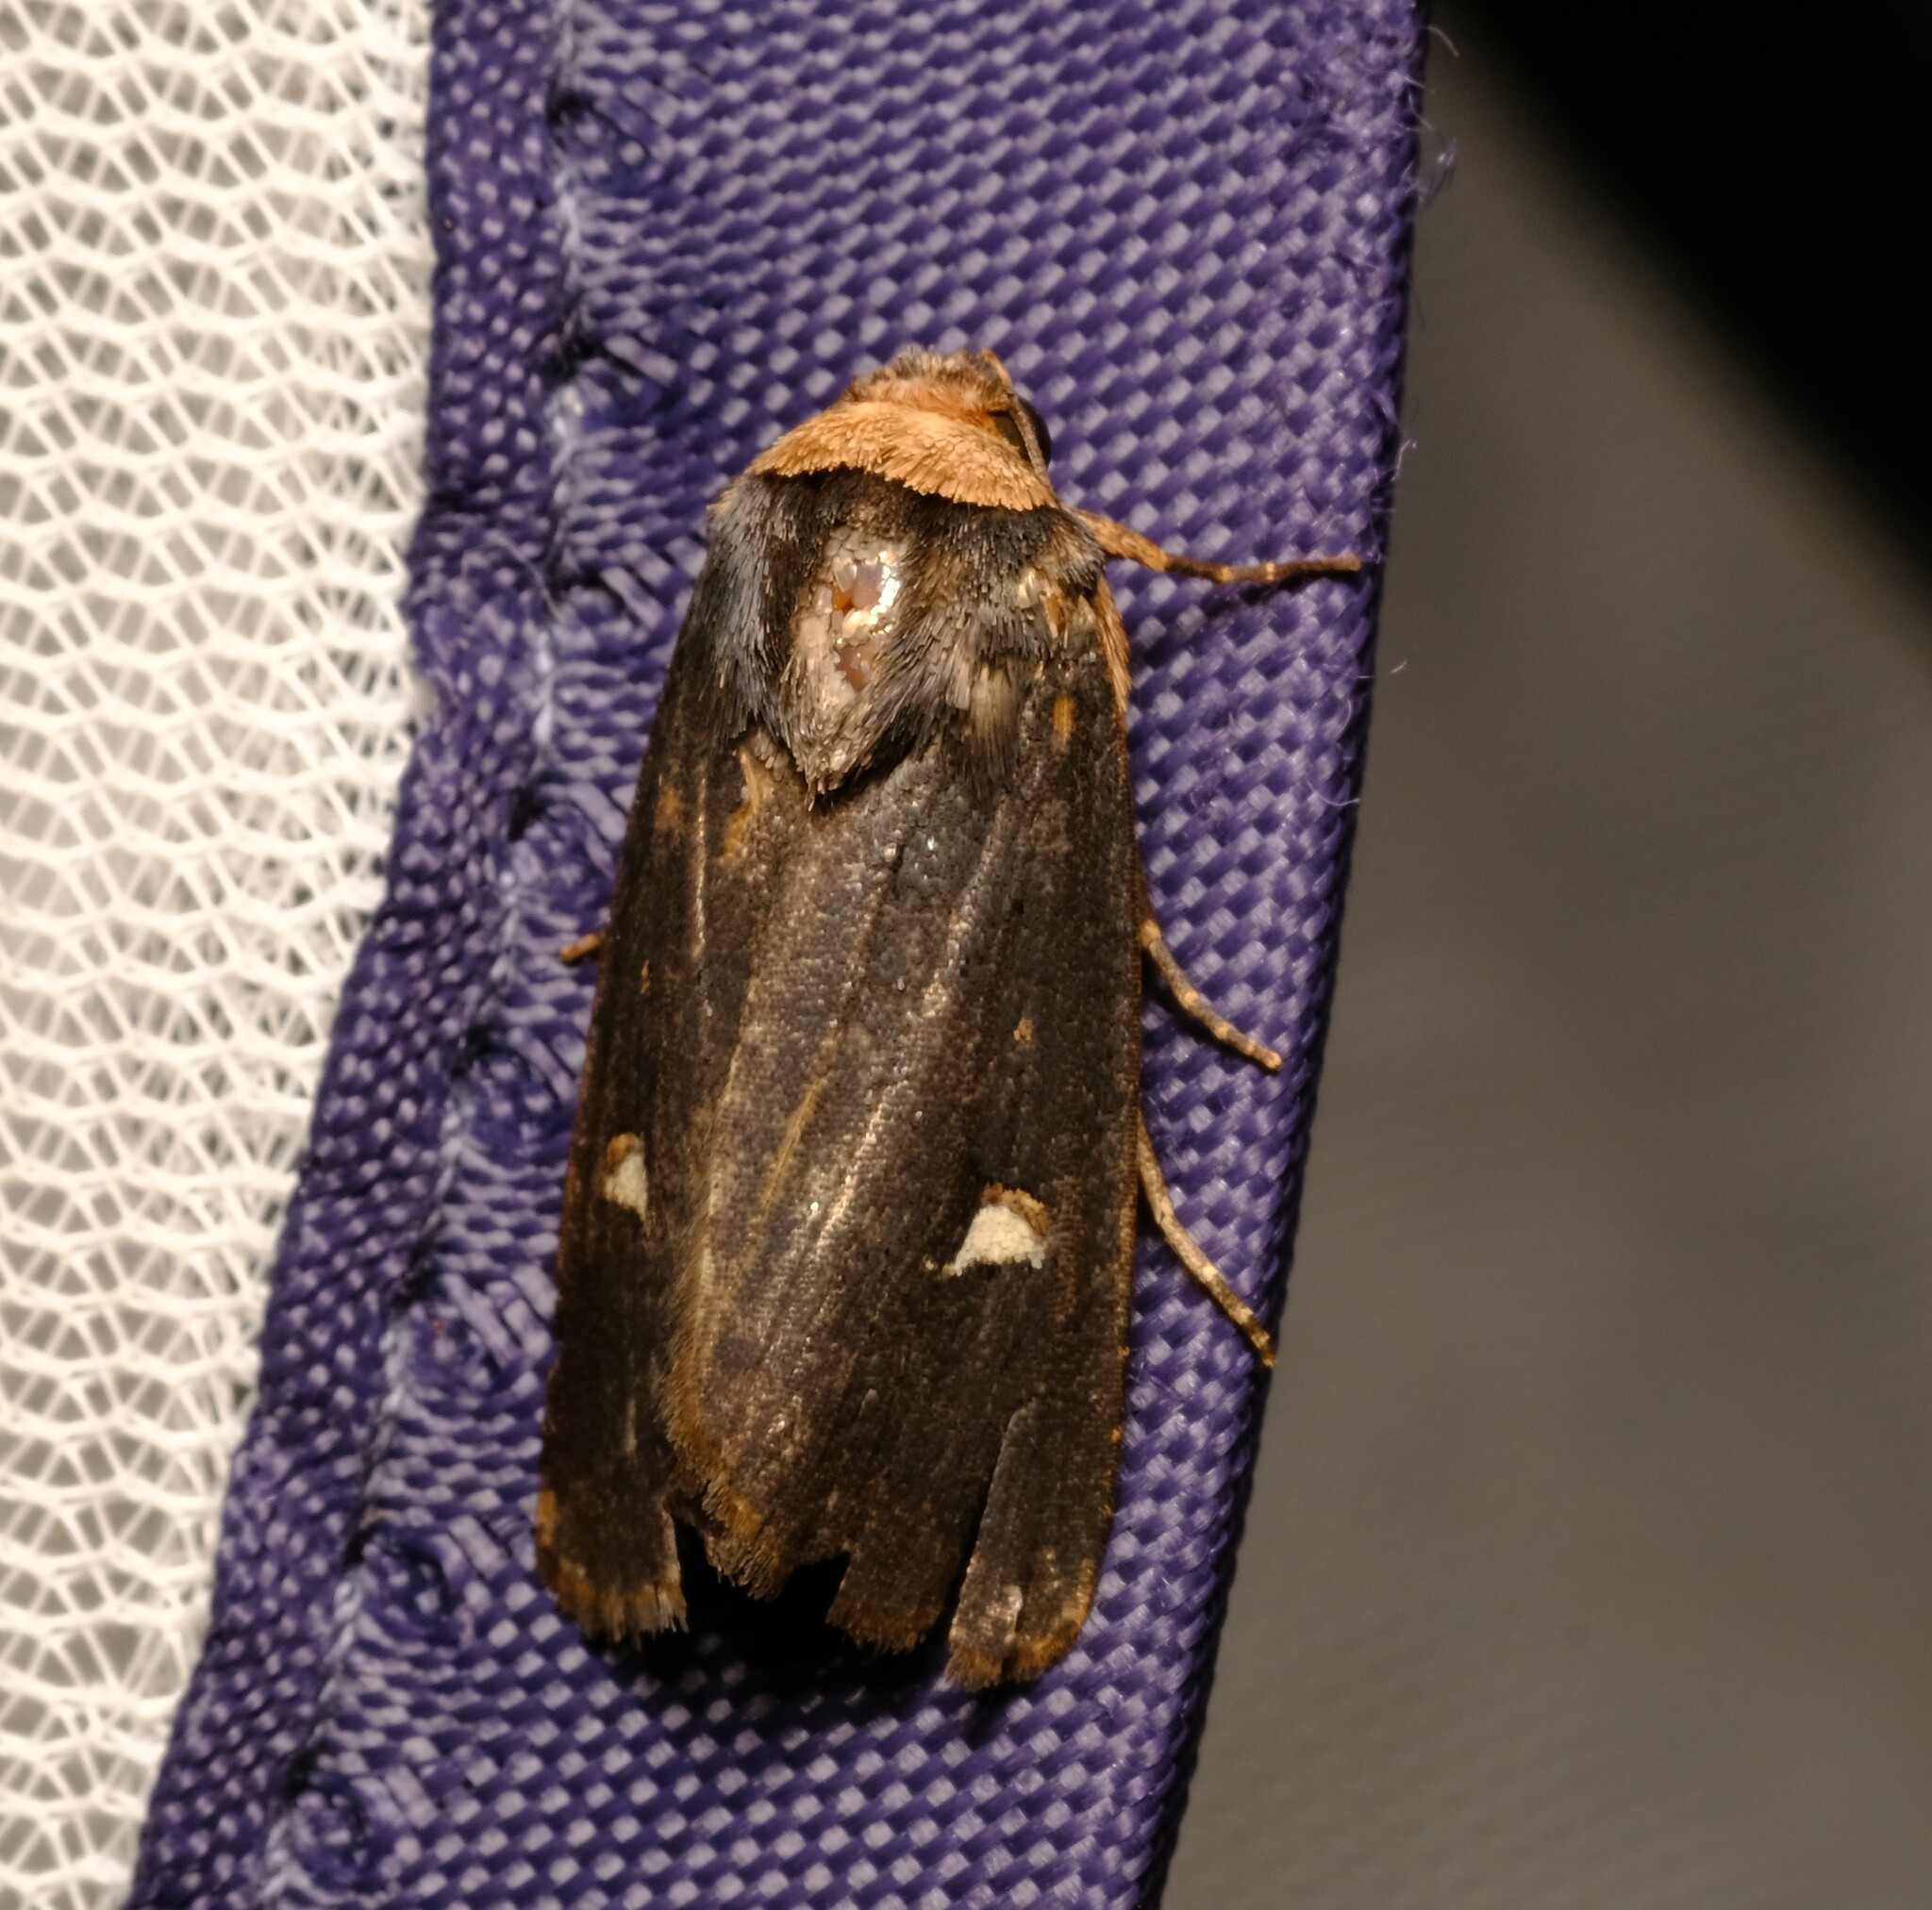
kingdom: Animalia
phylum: Arthropoda
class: Insecta
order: Lepidoptera
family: Noctuidae
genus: Proteuxoa
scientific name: Proteuxoa testaceicollis
